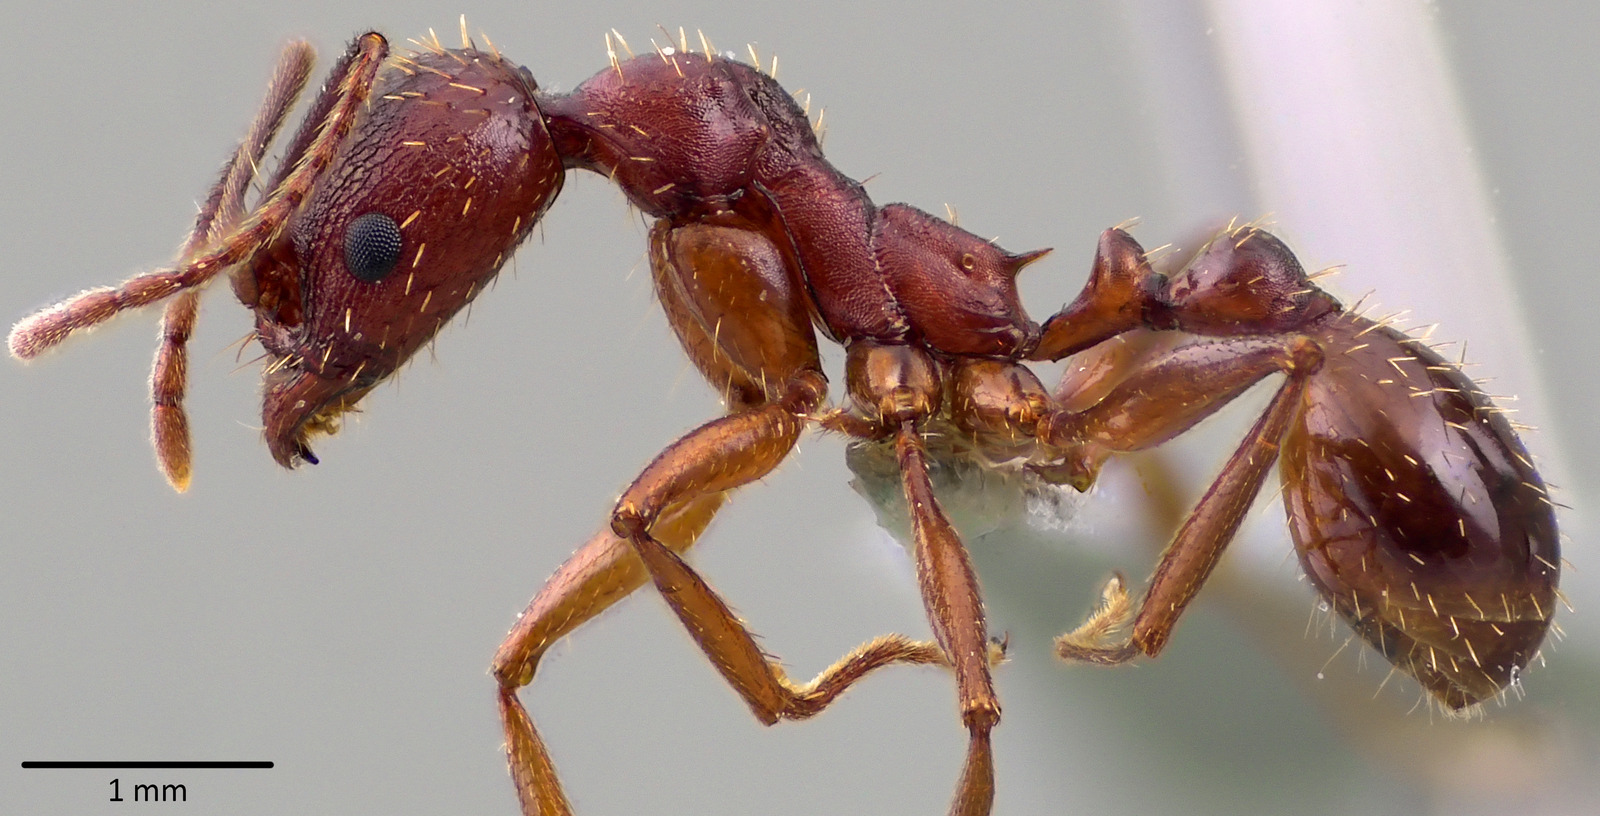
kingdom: Animalia
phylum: Arthropoda
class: Insecta
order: Hymenoptera
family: Formicidae
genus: Aphaenogaster
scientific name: Aphaenogaster treatae
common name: Treat's collared ant
